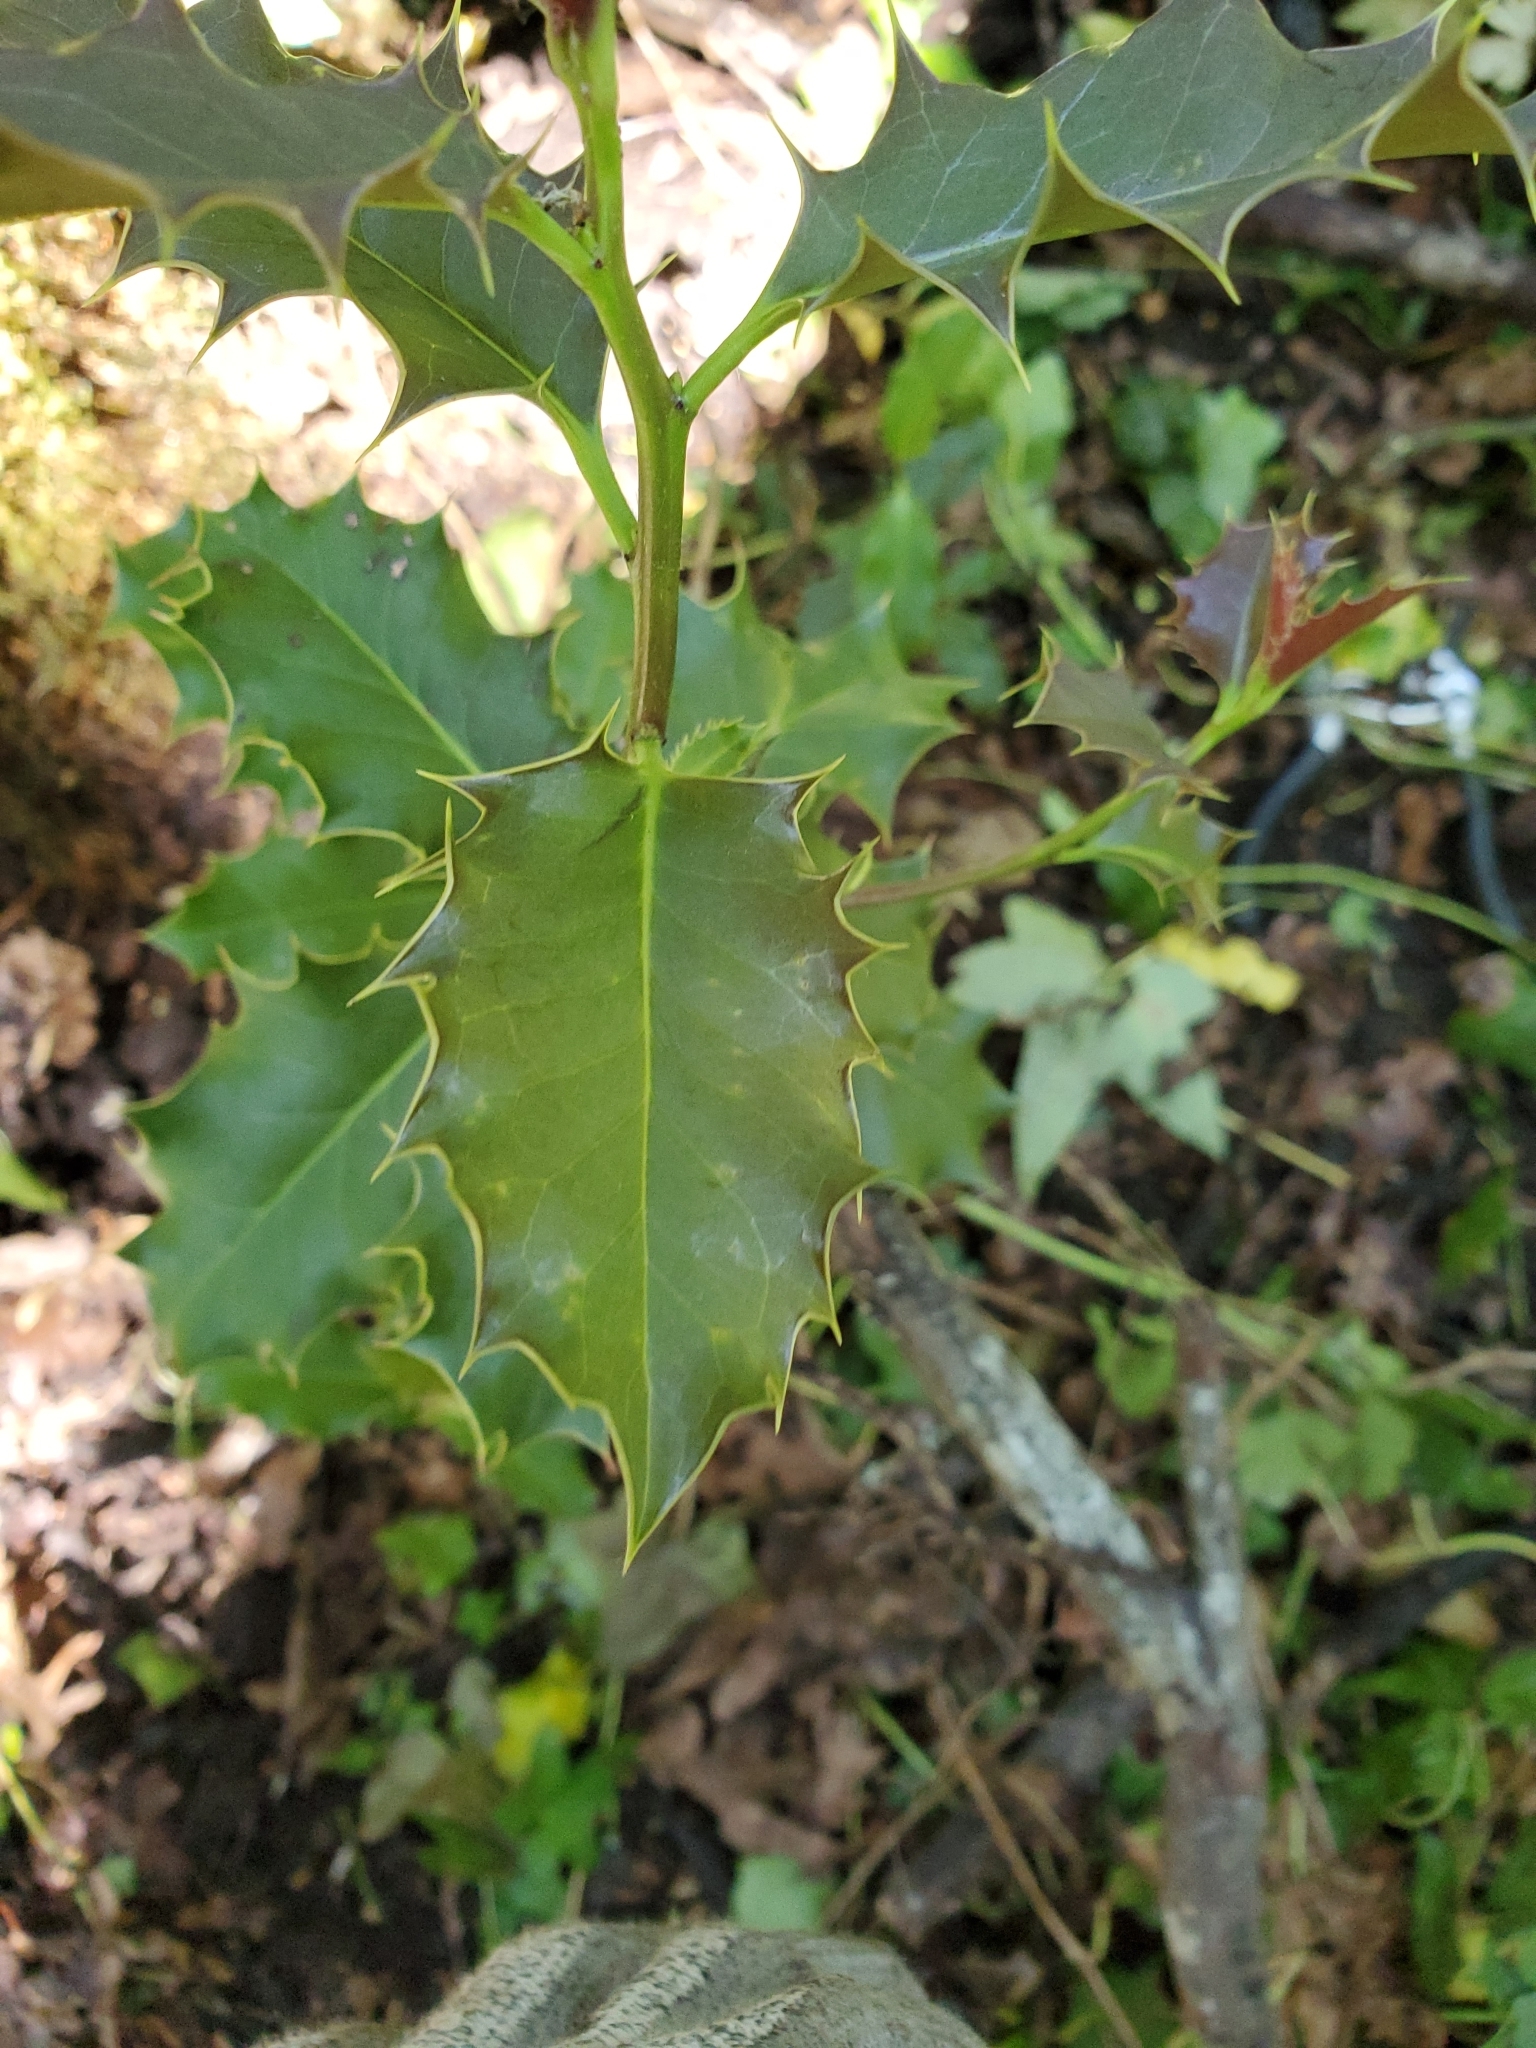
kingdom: Plantae
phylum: Tracheophyta
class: Magnoliopsida
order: Aquifoliales
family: Aquifoliaceae
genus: Ilex
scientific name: Ilex aquifolium
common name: English holly
